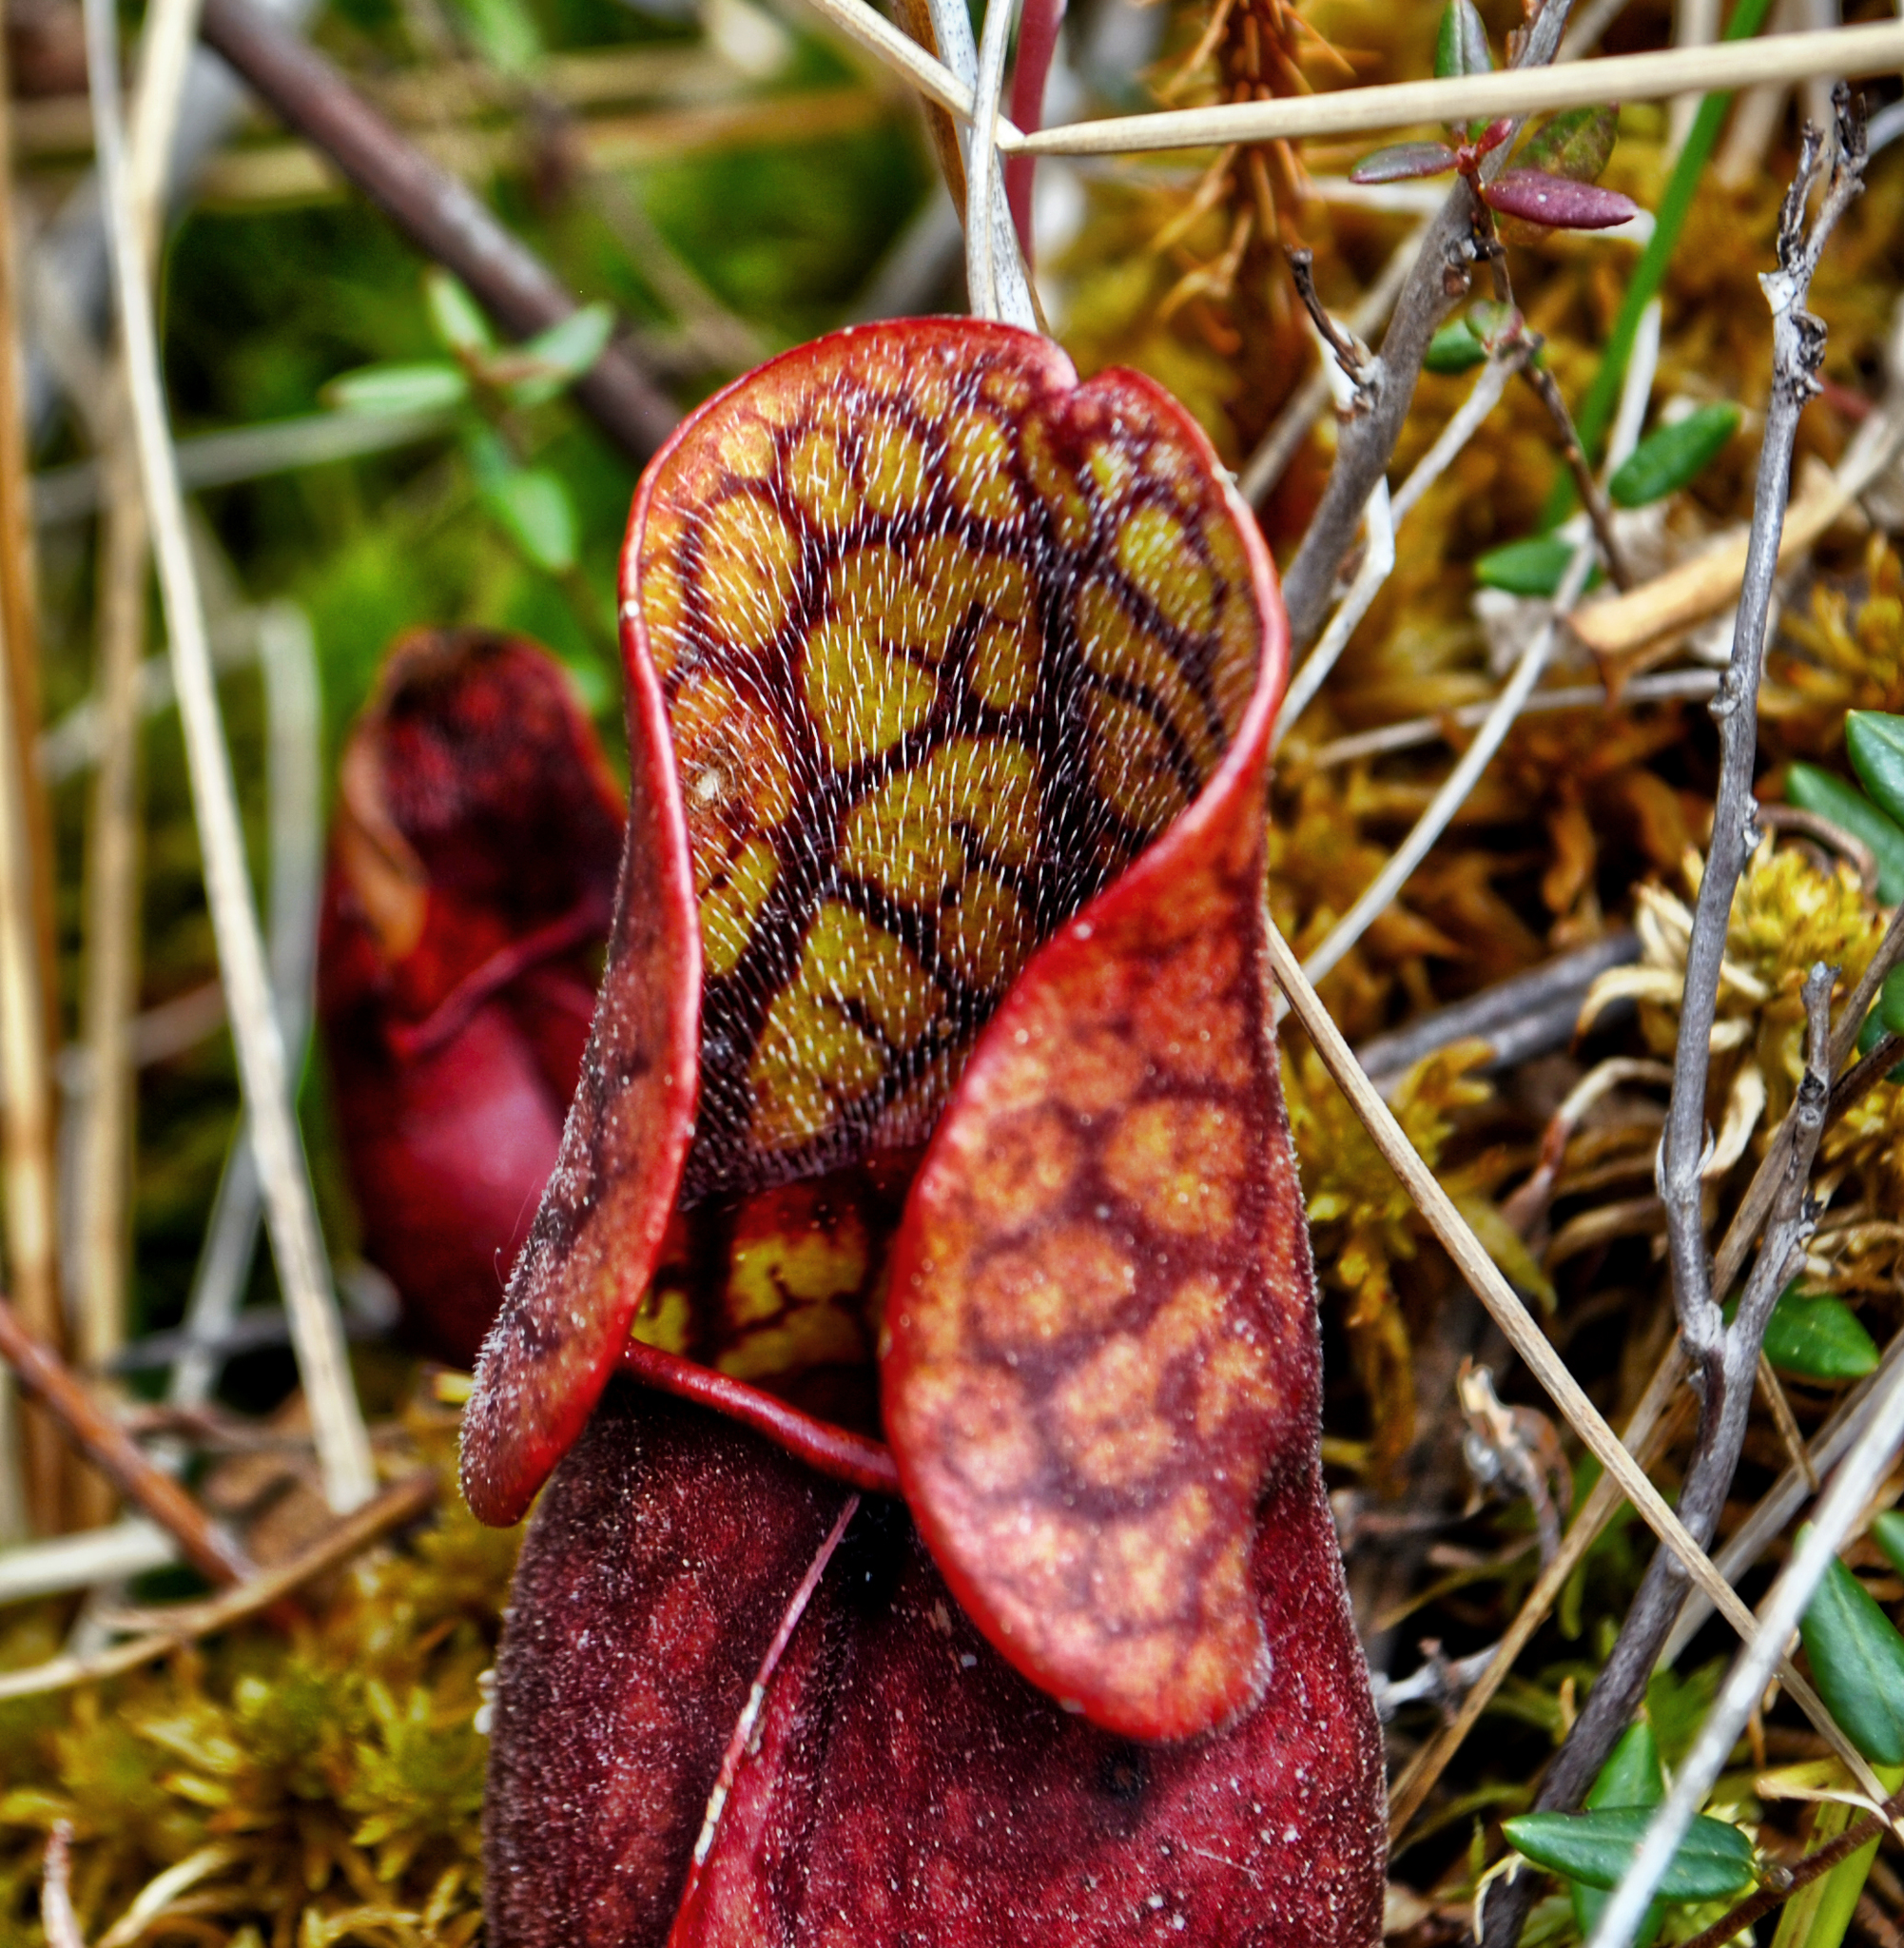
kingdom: Plantae
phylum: Tracheophyta
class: Magnoliopsida
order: Ericales
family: Sarraceniaceae
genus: Sarracenia
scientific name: Sarracenia purpurea
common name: Pitcherplant
